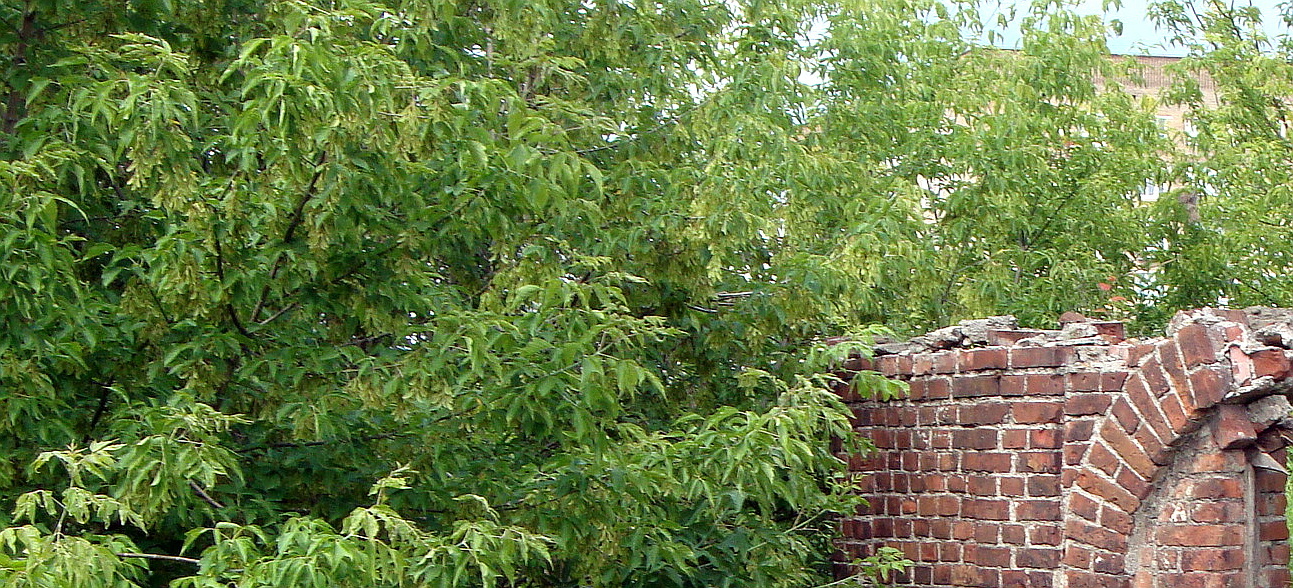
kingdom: Plantae
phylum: Tracheophyta
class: Magnoliopsida
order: Sapindales
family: Sapindaceae
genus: Acer
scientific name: Acer negundo
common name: Ashleaf maple
